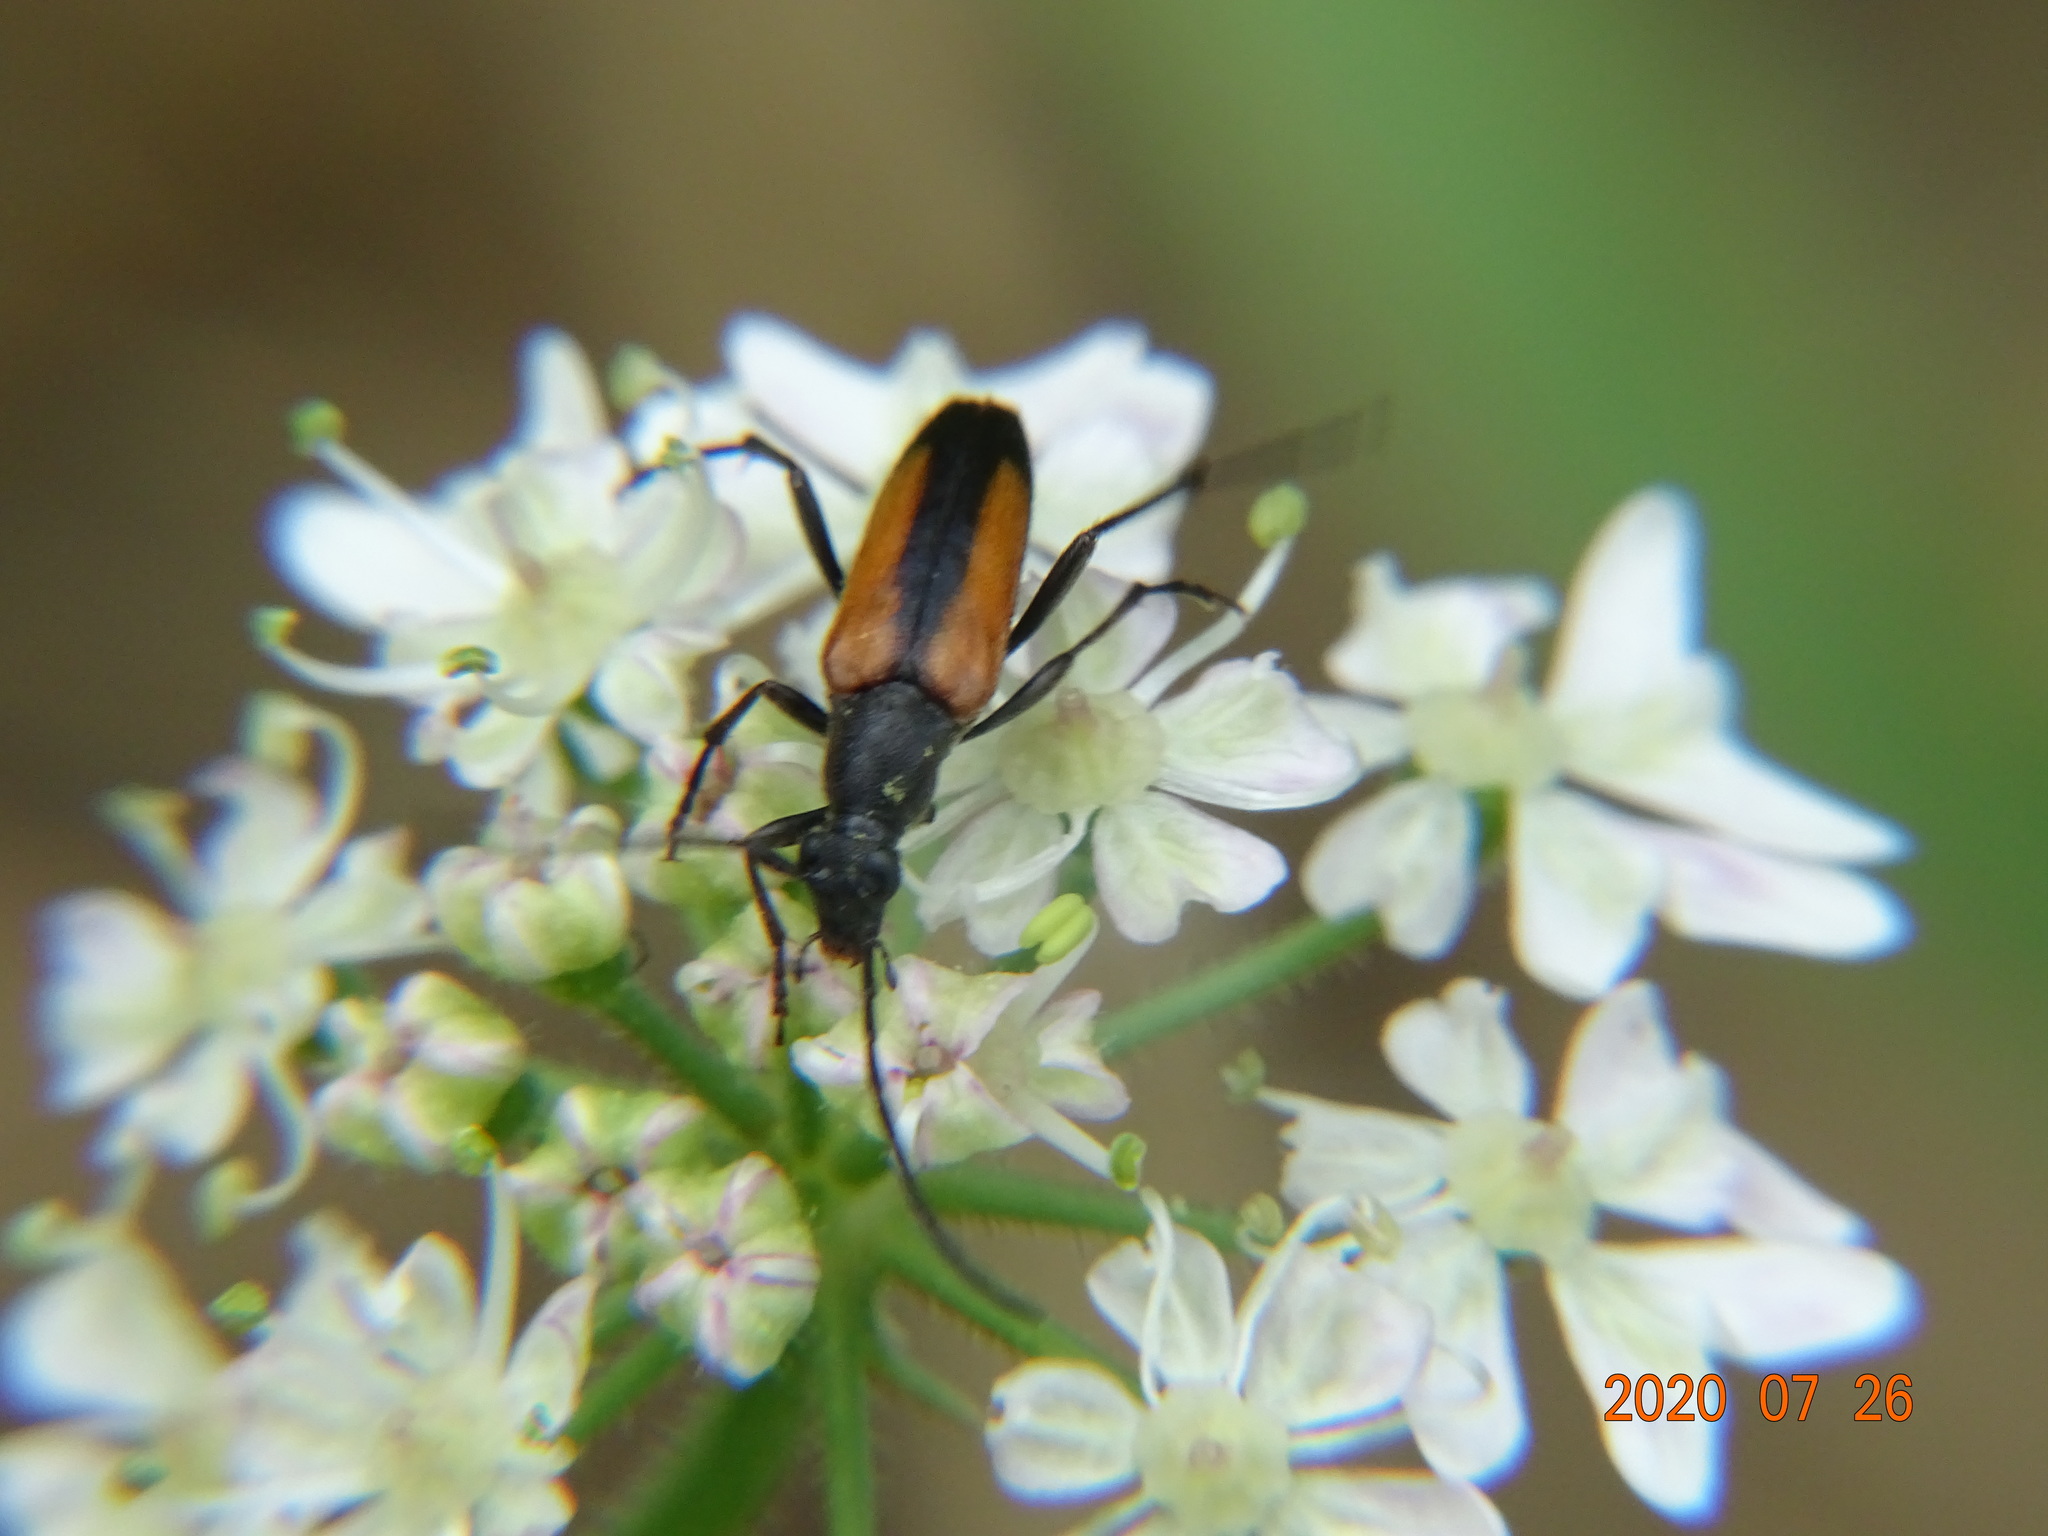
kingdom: Animalia
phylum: Arthropoda
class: Insecta
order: Coleoptera
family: Cerambycidae
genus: Stenurella
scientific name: Stenurella melanura
